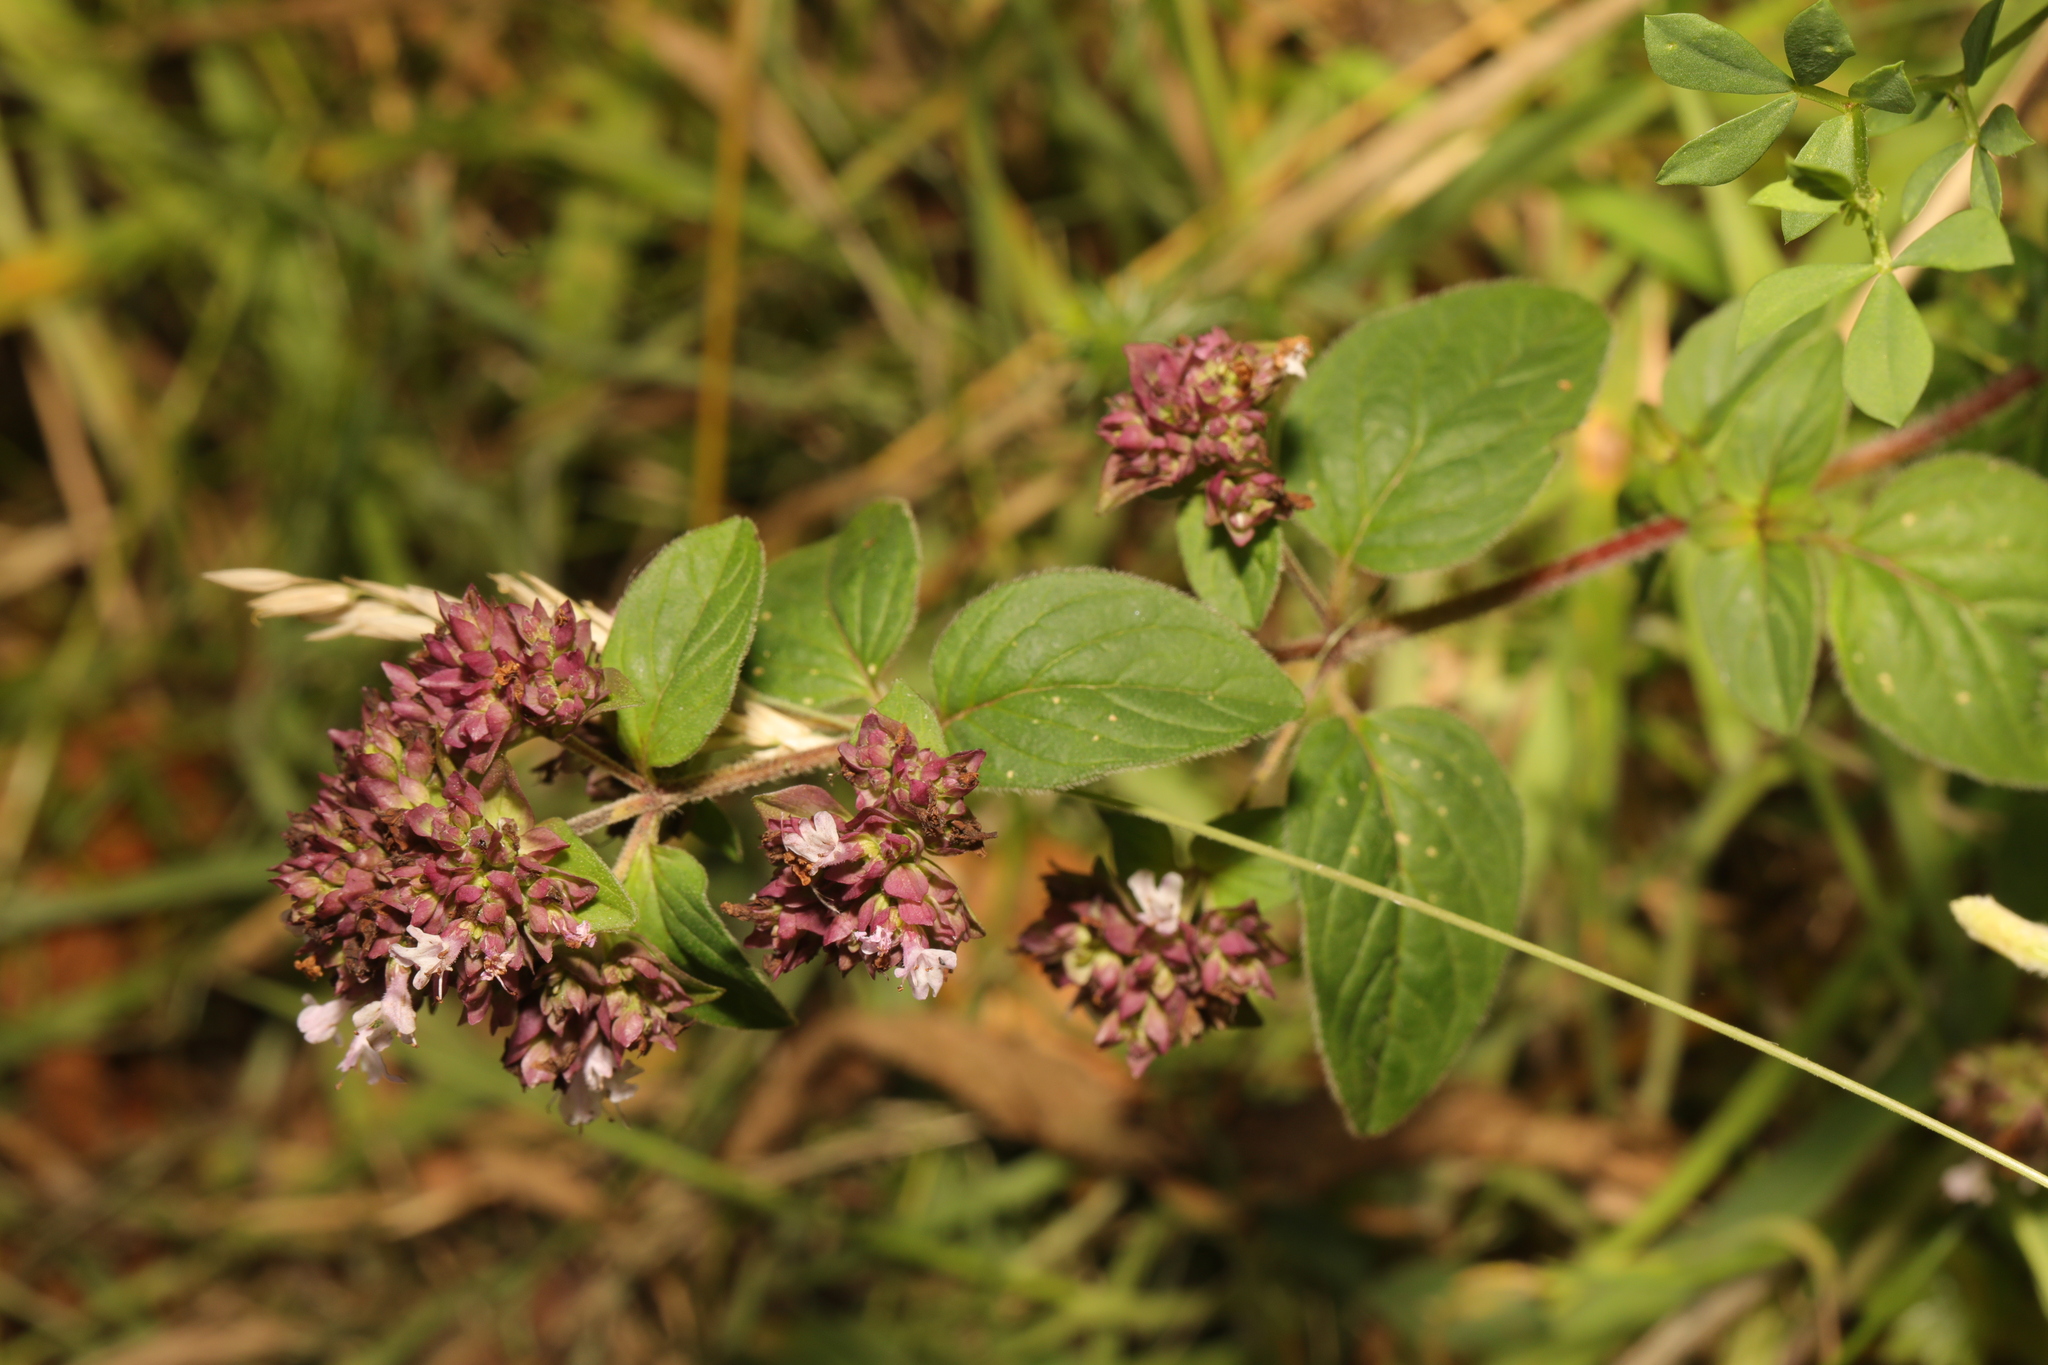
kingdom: Plantae
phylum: Tracheophyta
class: Magnoliopsida
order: Lamiales
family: Lamiaceae
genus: Origanum
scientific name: Origanum vulgare
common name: Wild marjoram
